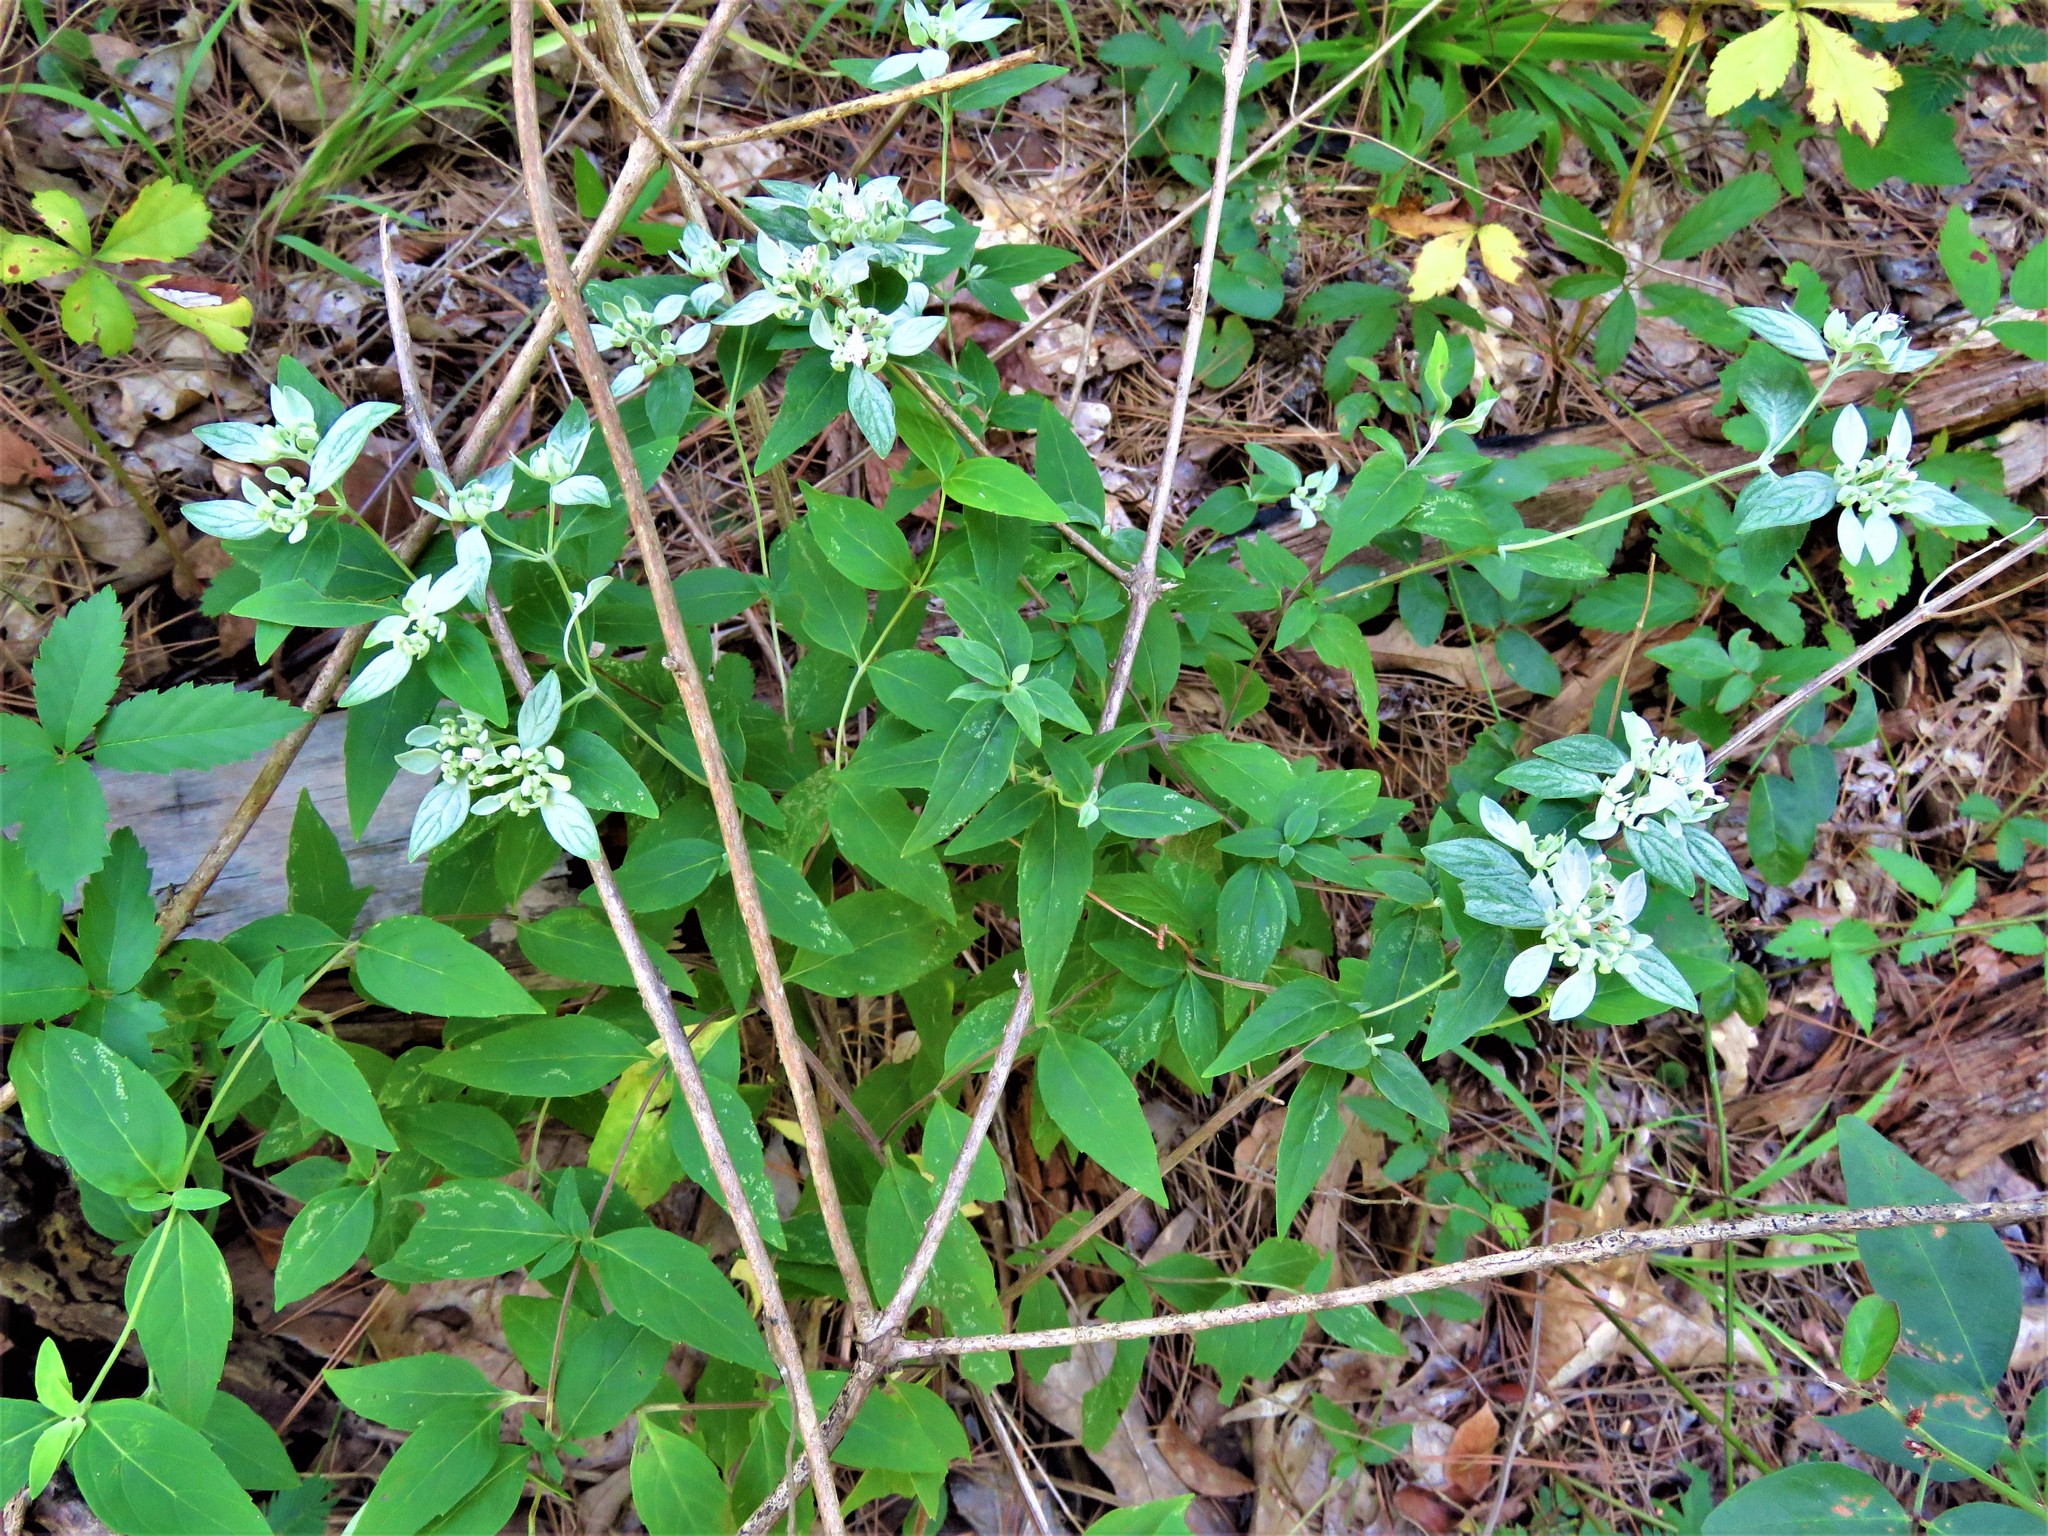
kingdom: Plantae
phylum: Tracheophyta
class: Magnoliopsida
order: Lamiales
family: Lamiaceae
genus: Pycnanthemum
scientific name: Pycnanthemum albescens
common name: White-leaf mountain-mint
